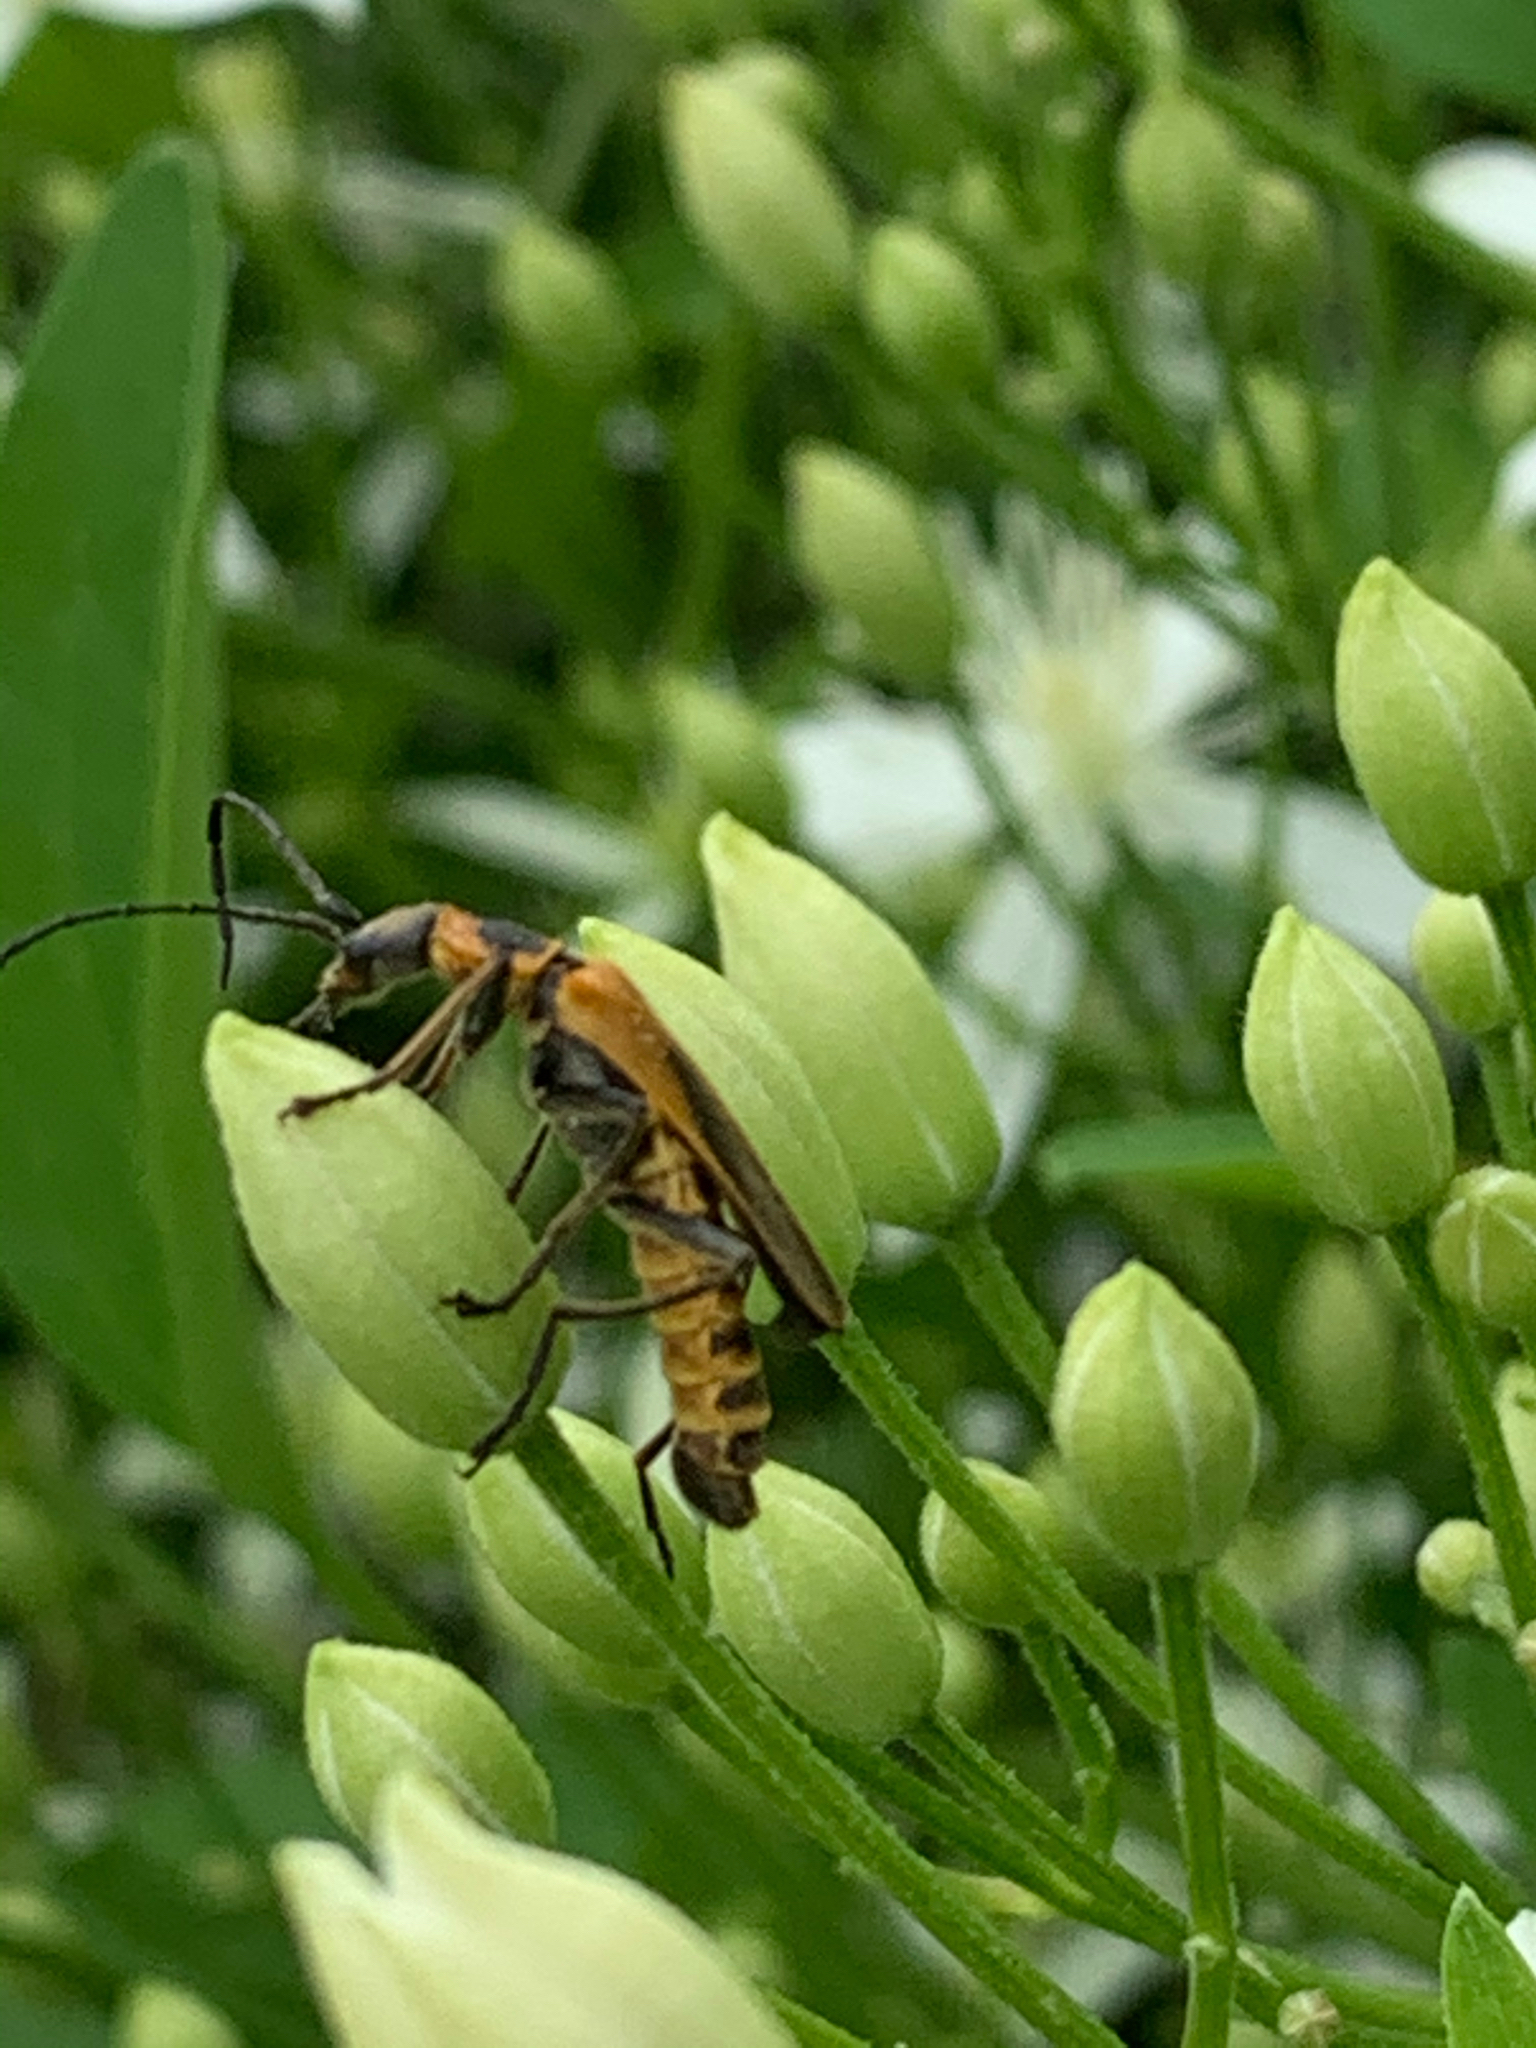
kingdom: Animalia
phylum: Arthropoda
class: Insecta
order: Coleoptera
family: Cantharidae
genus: Chauliognathus
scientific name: Chauliognathus pensylvanicus
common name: Goldenrod soldier beetle
